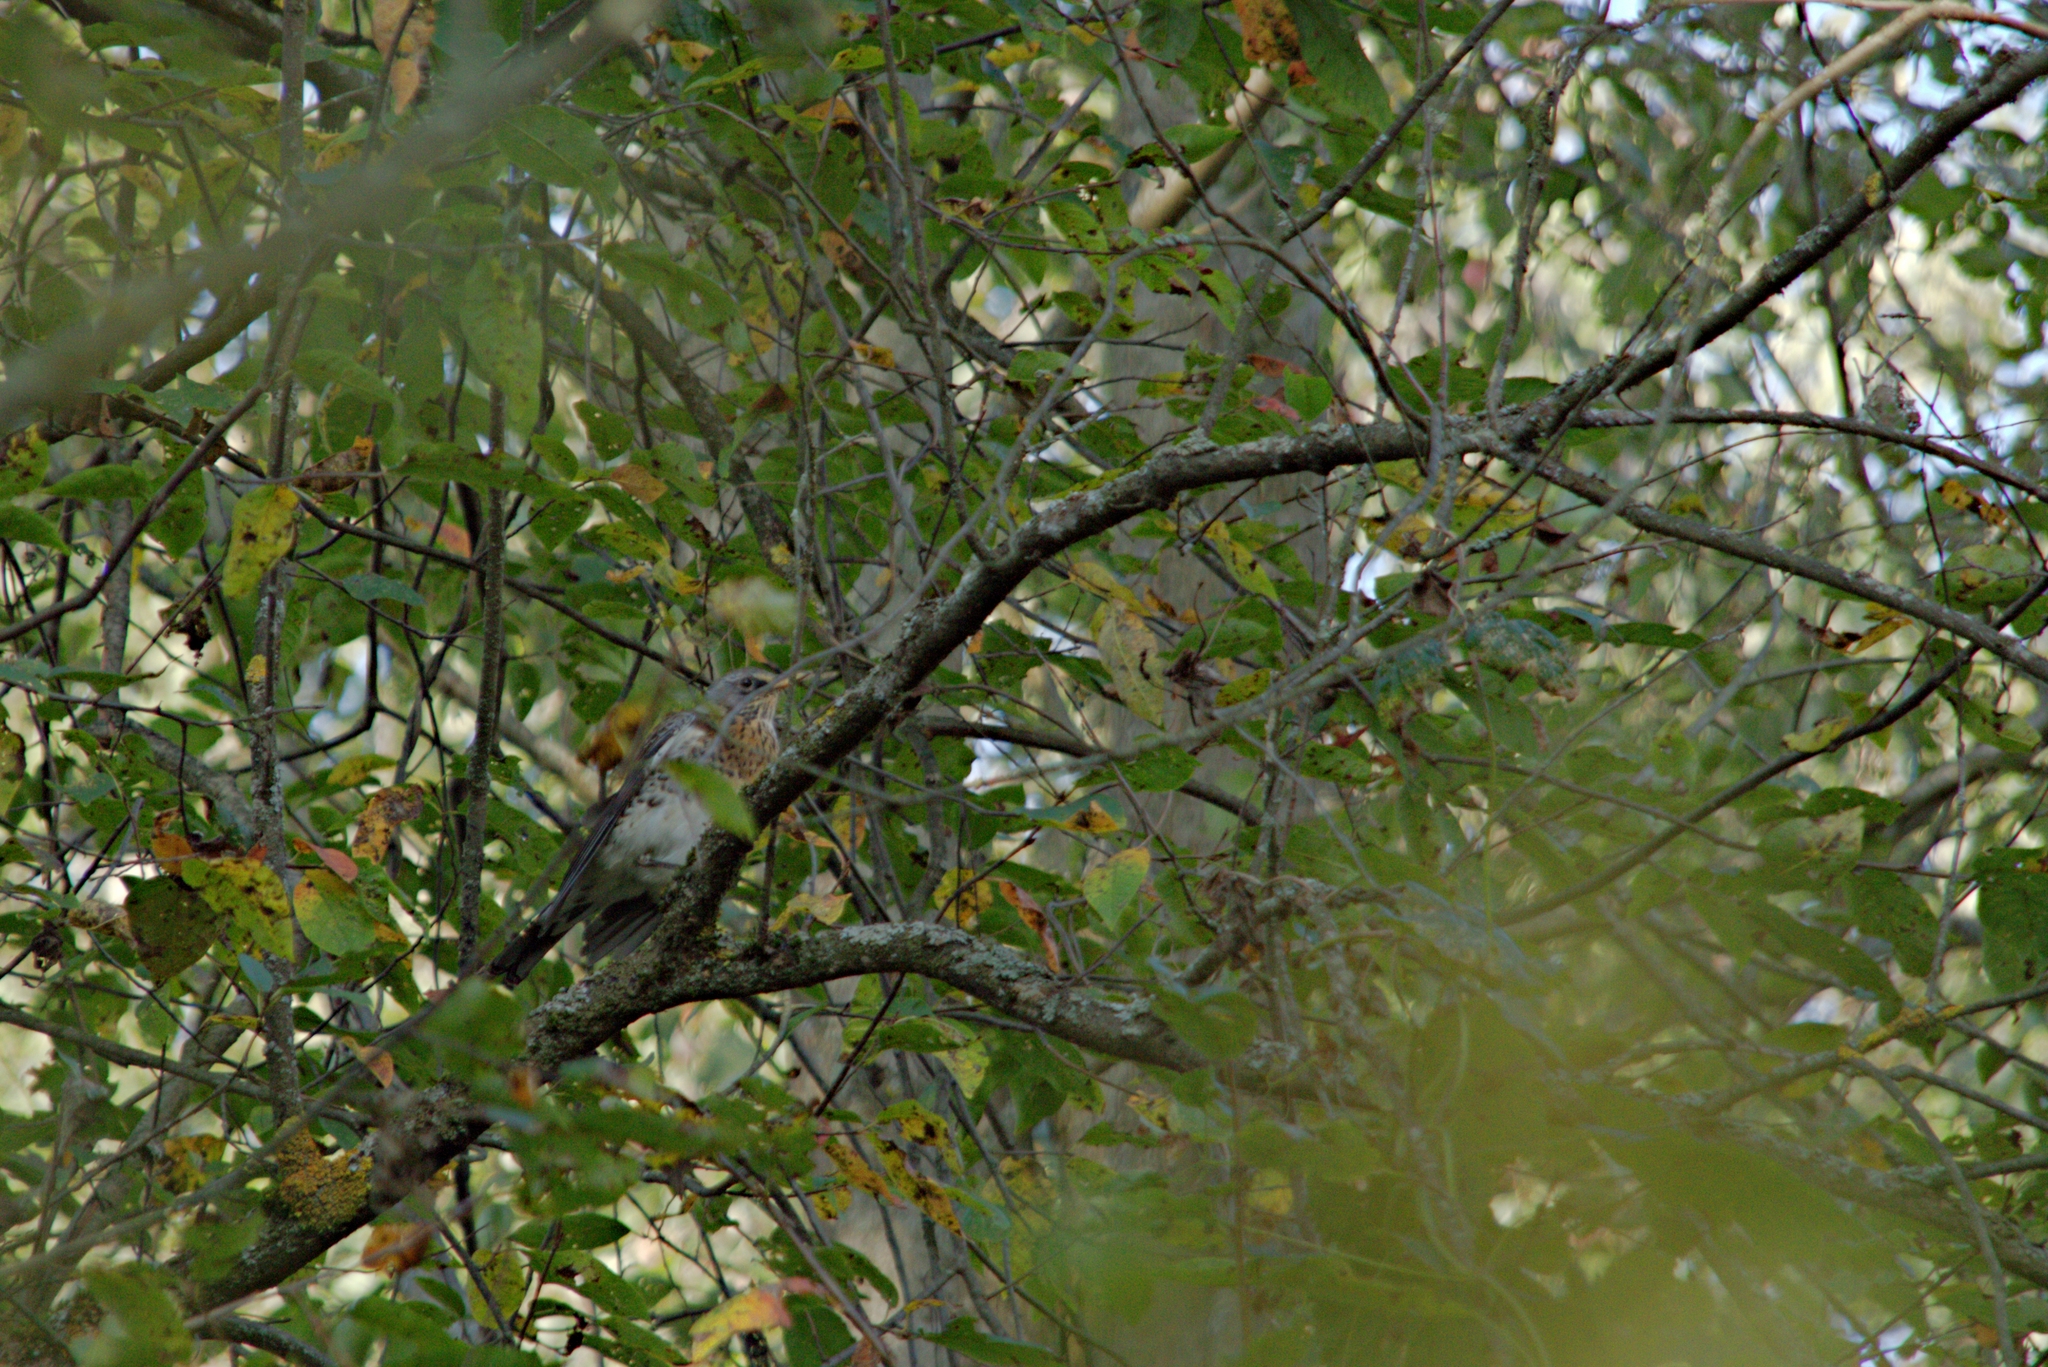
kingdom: Animalia
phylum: Chordata
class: Aves
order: Passeriformes
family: Turdidae
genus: Turdus
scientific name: Turdus pilaris
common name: Fieldfare
